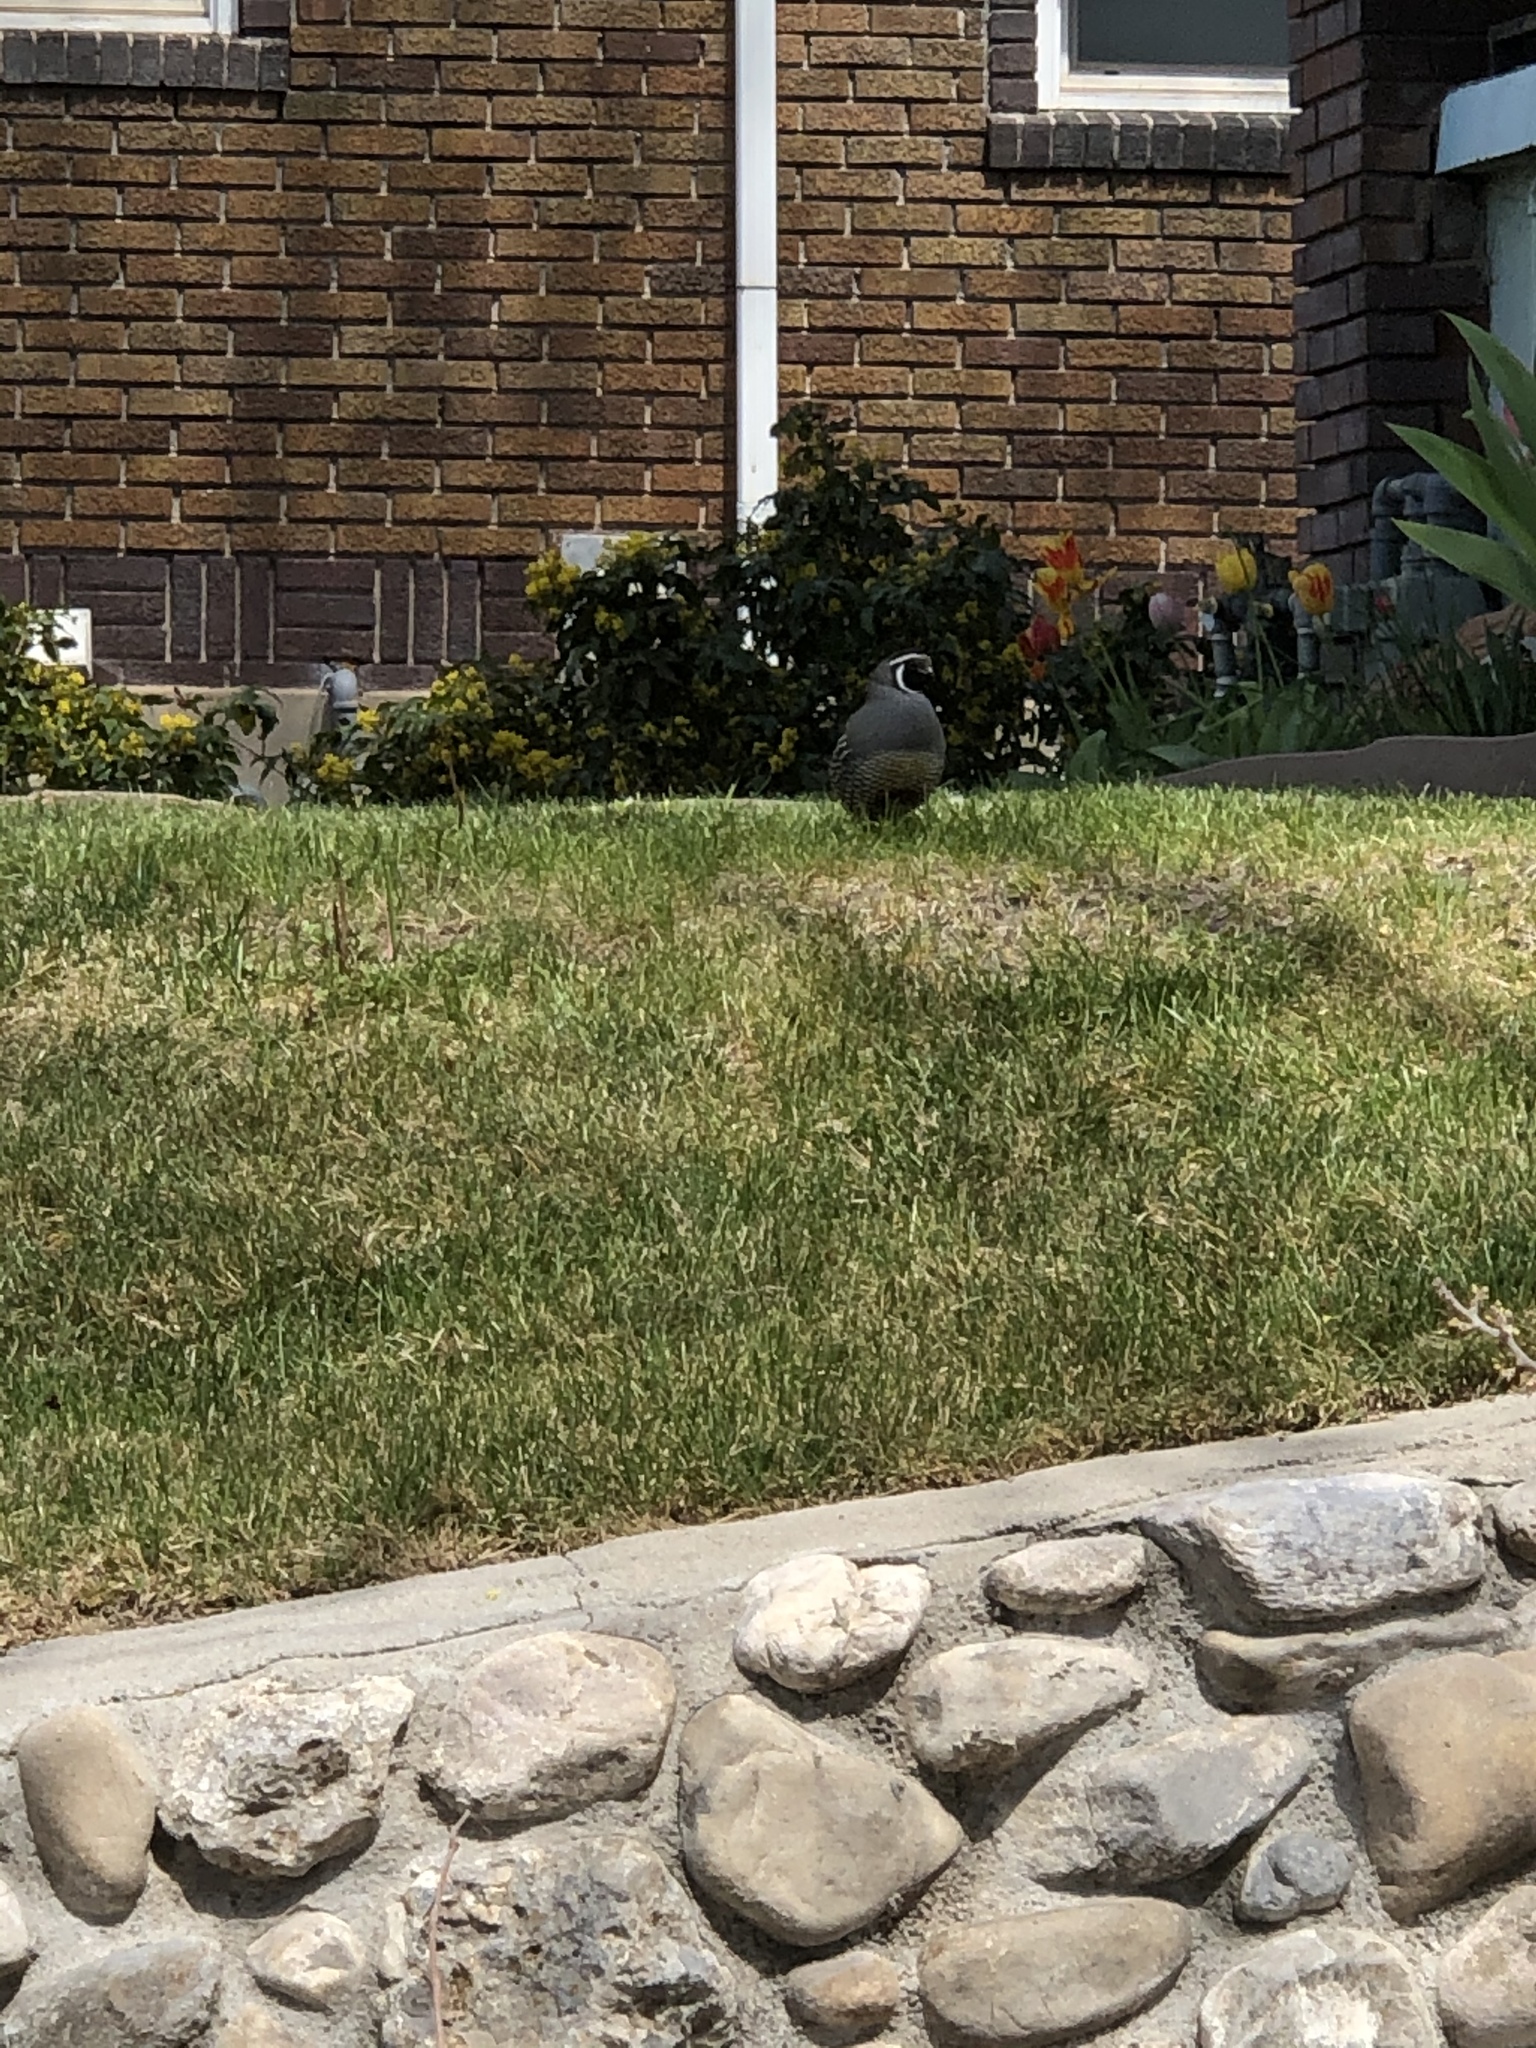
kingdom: Animalia
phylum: Chordata
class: Aves
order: Galliformes
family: Odontophoridae
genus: Callipepla
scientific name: Callipepla californica
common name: California quail
